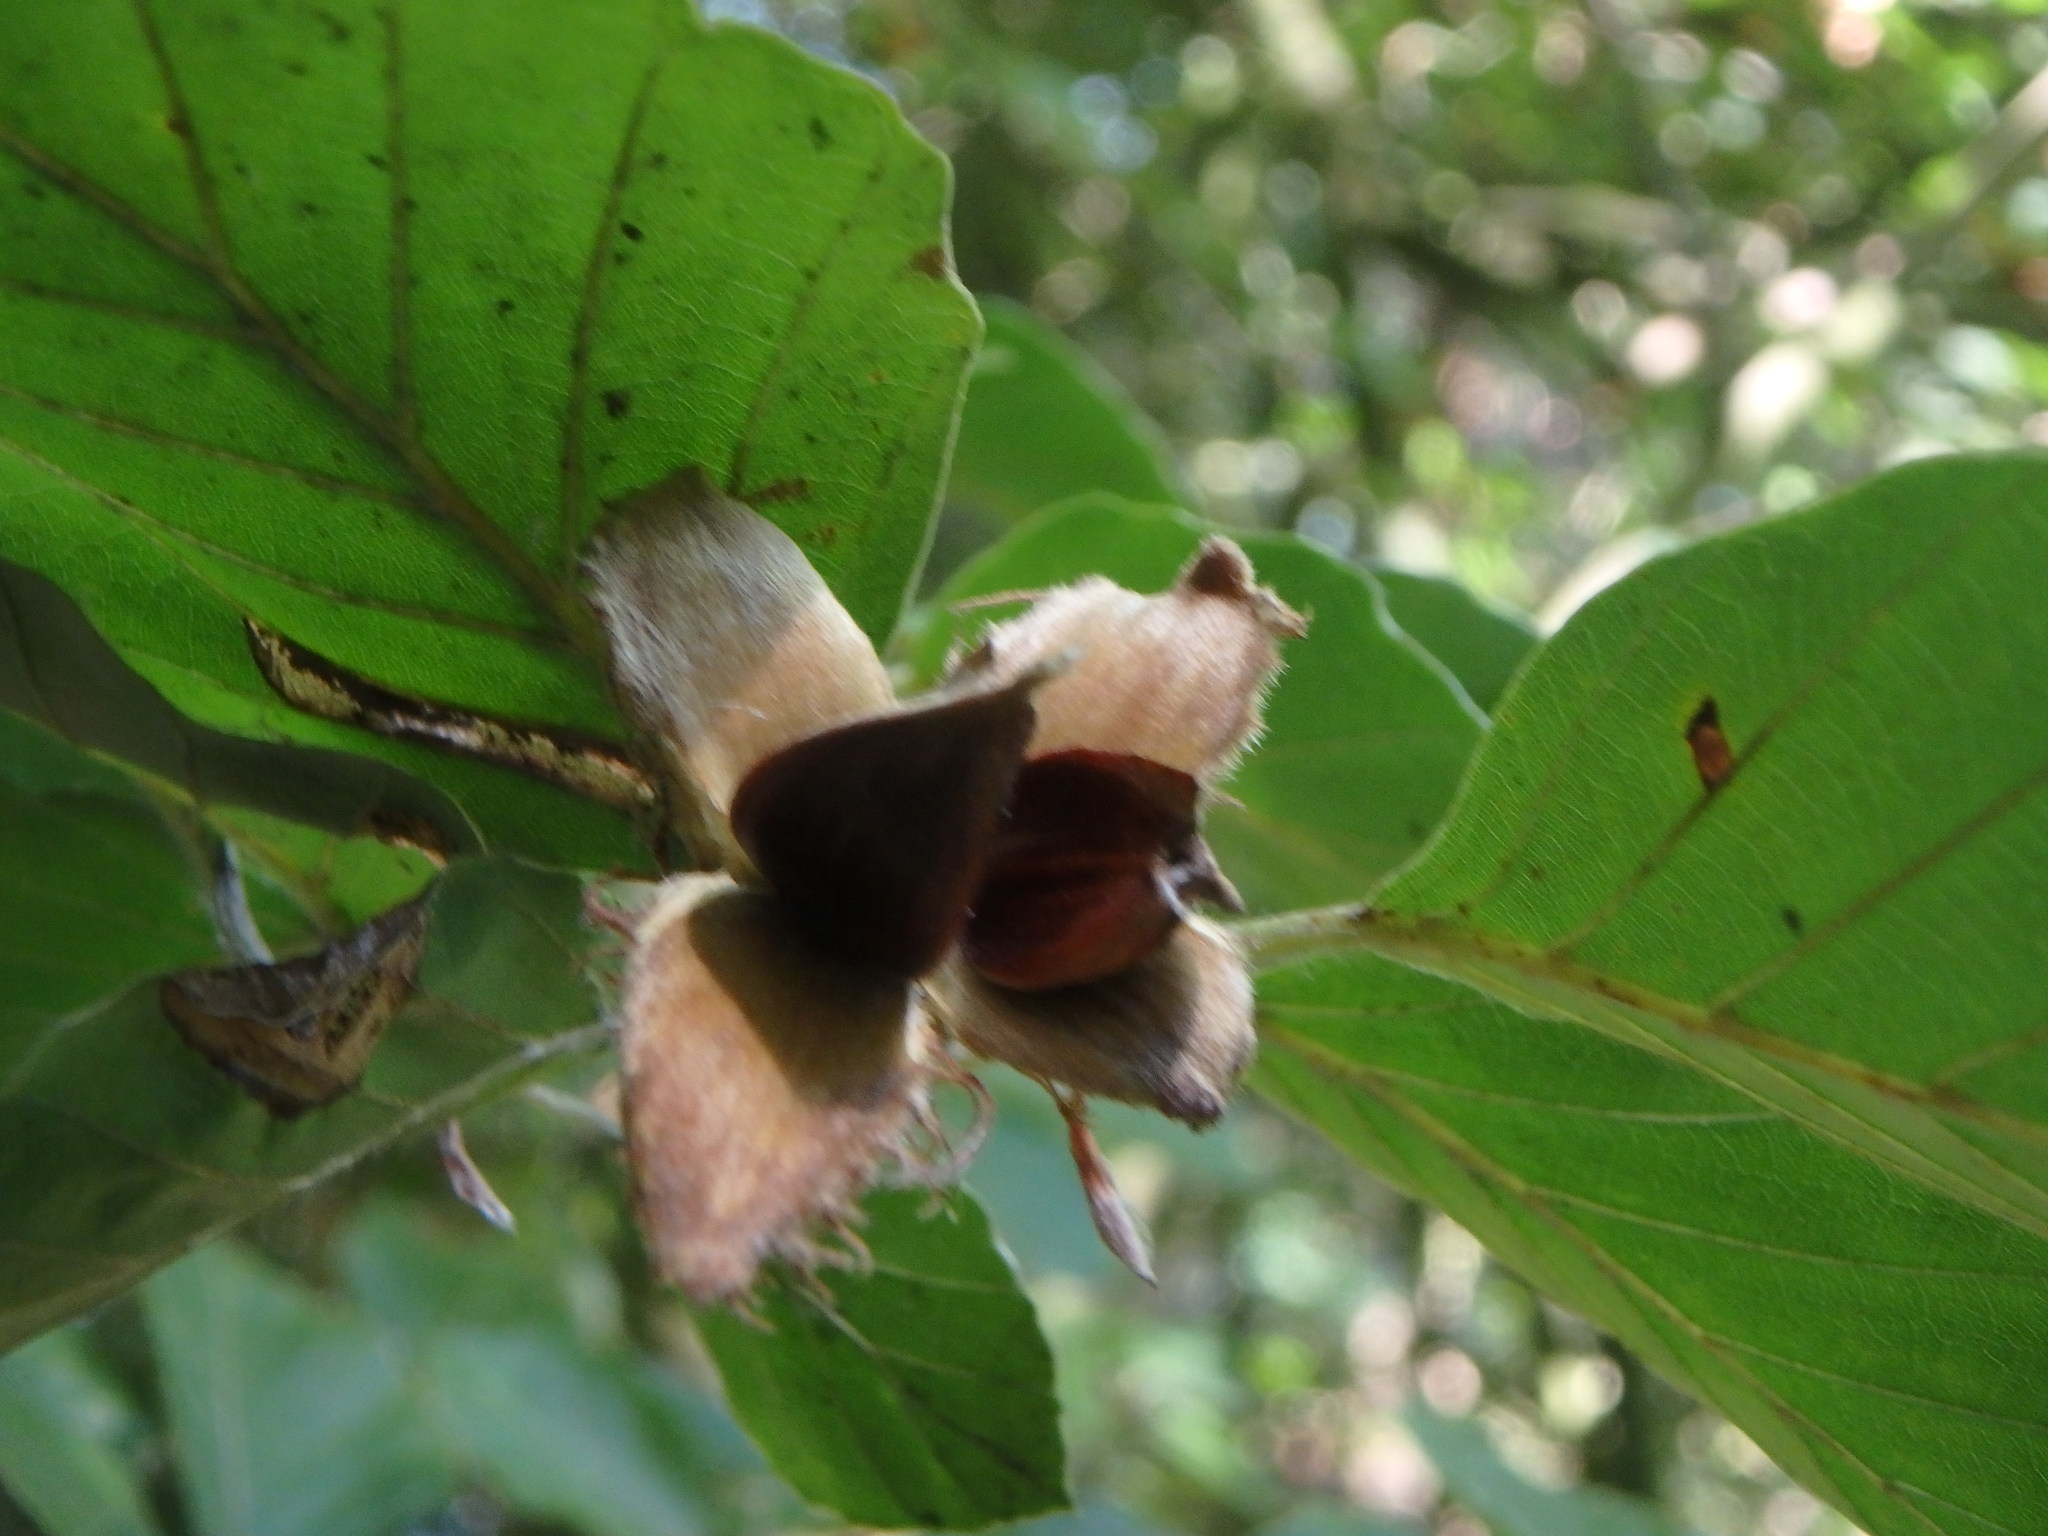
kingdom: Plantae
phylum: Tracheophyta
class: Magnoliopsida
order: Fagales
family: Fagaceae
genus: Fagus
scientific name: Fagus sylvatica
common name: Beech
